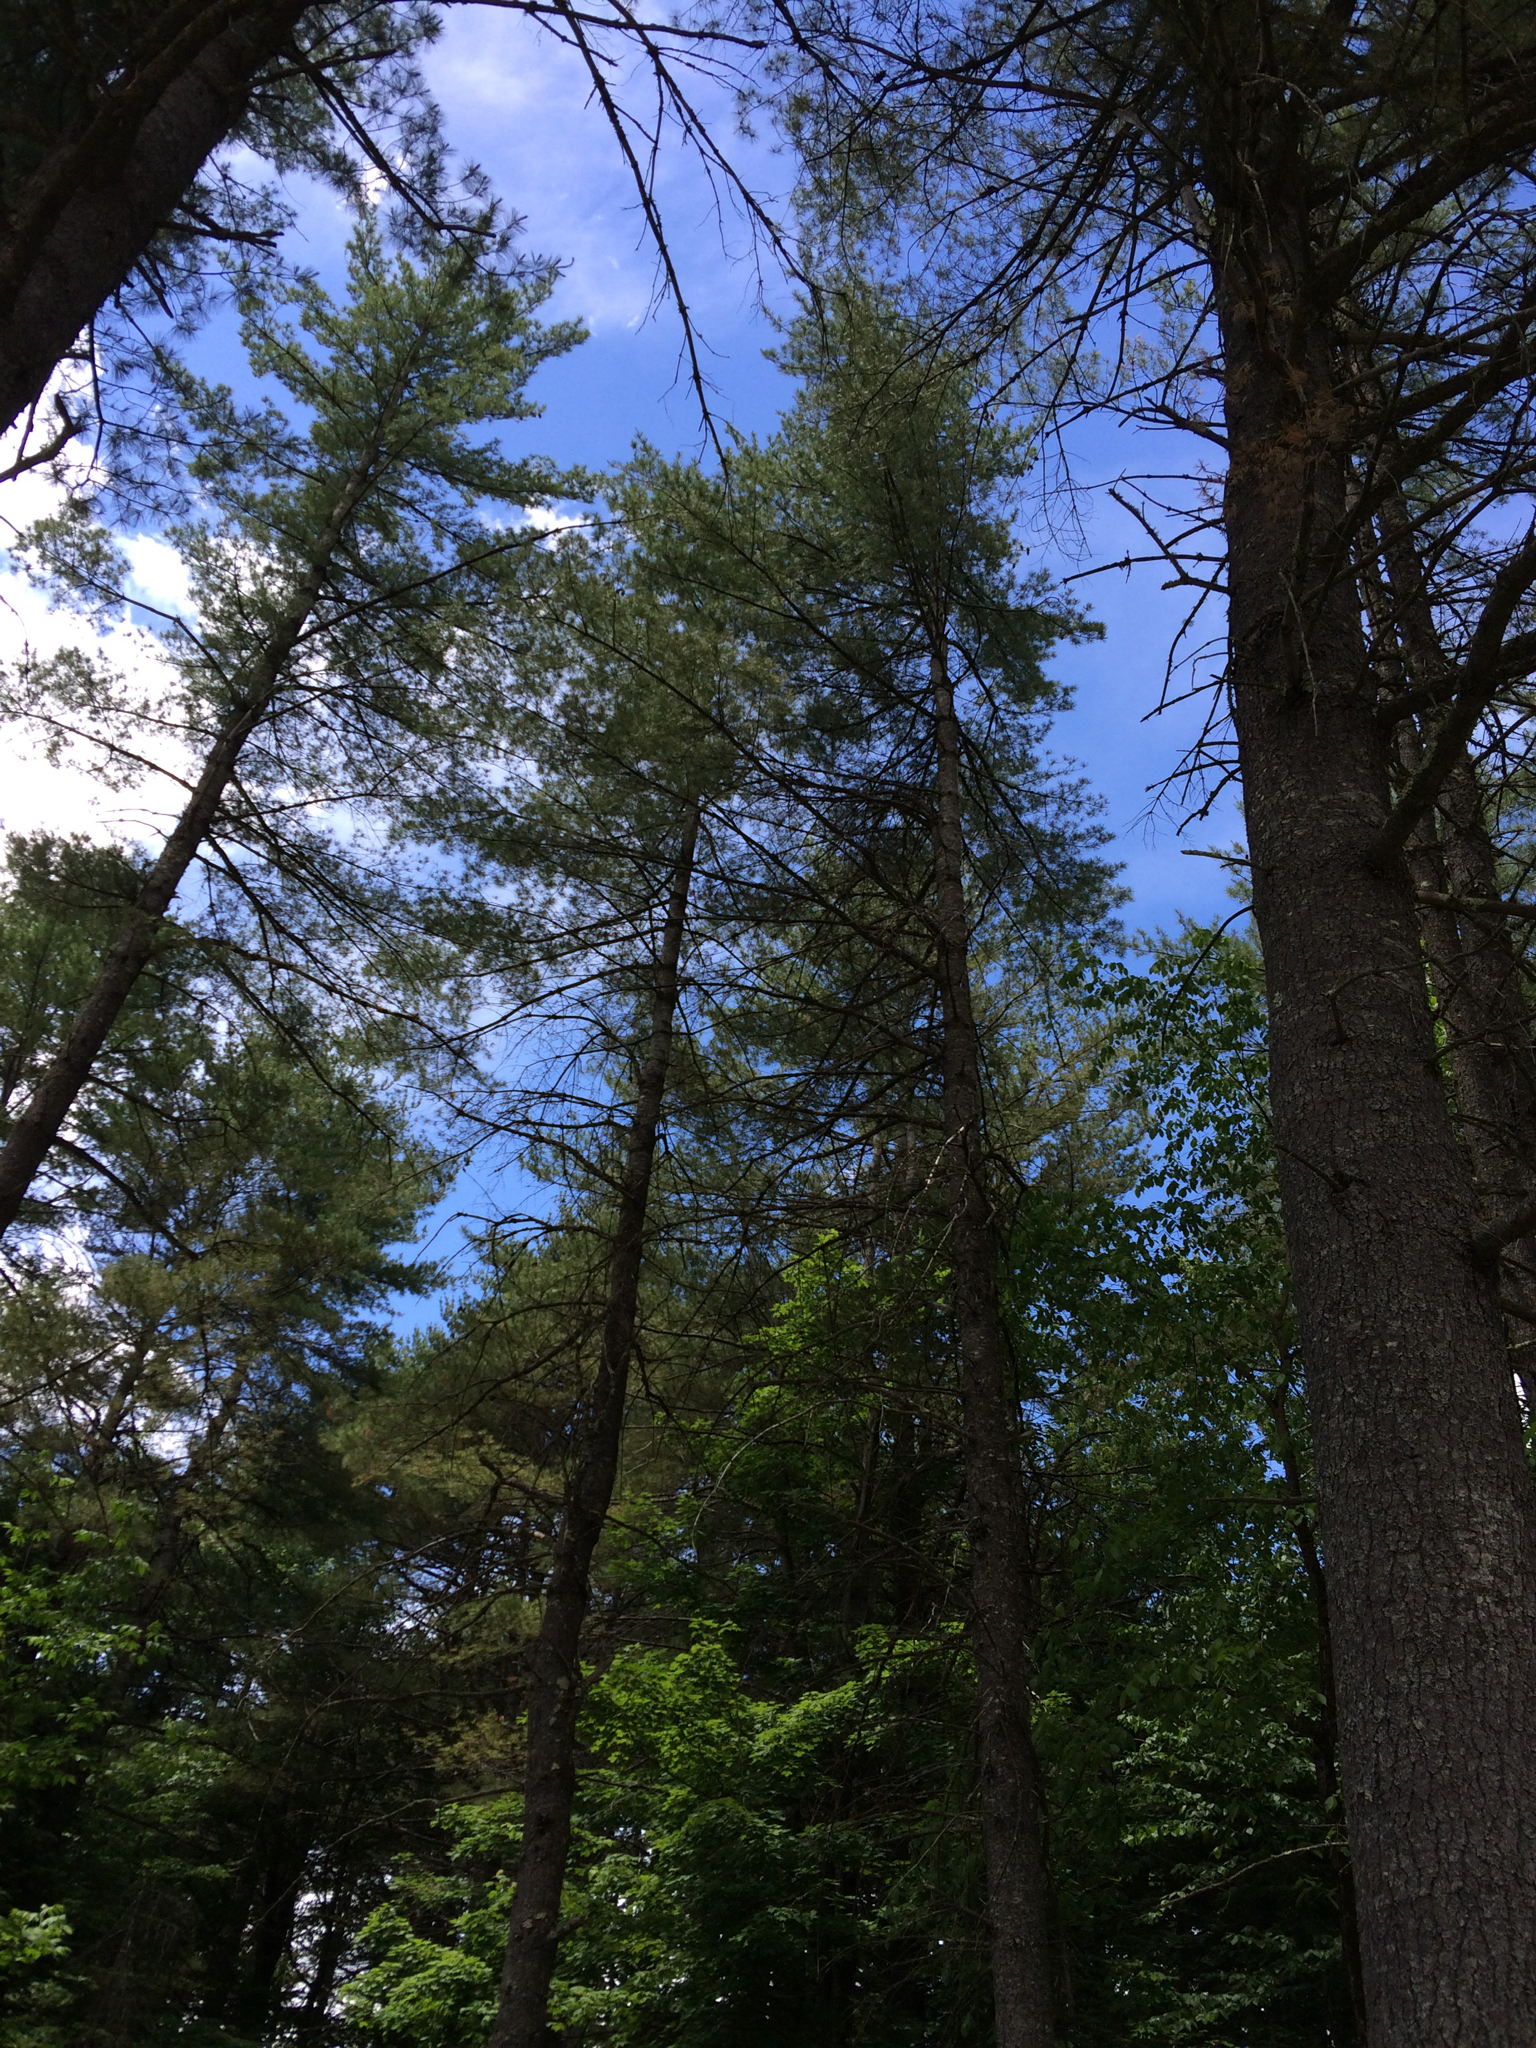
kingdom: Plantae
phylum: Tracheophyta
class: Pinopsida
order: Pinales
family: Pinaceae
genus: Pinus
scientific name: Pinus strobus
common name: Weymouth pine
